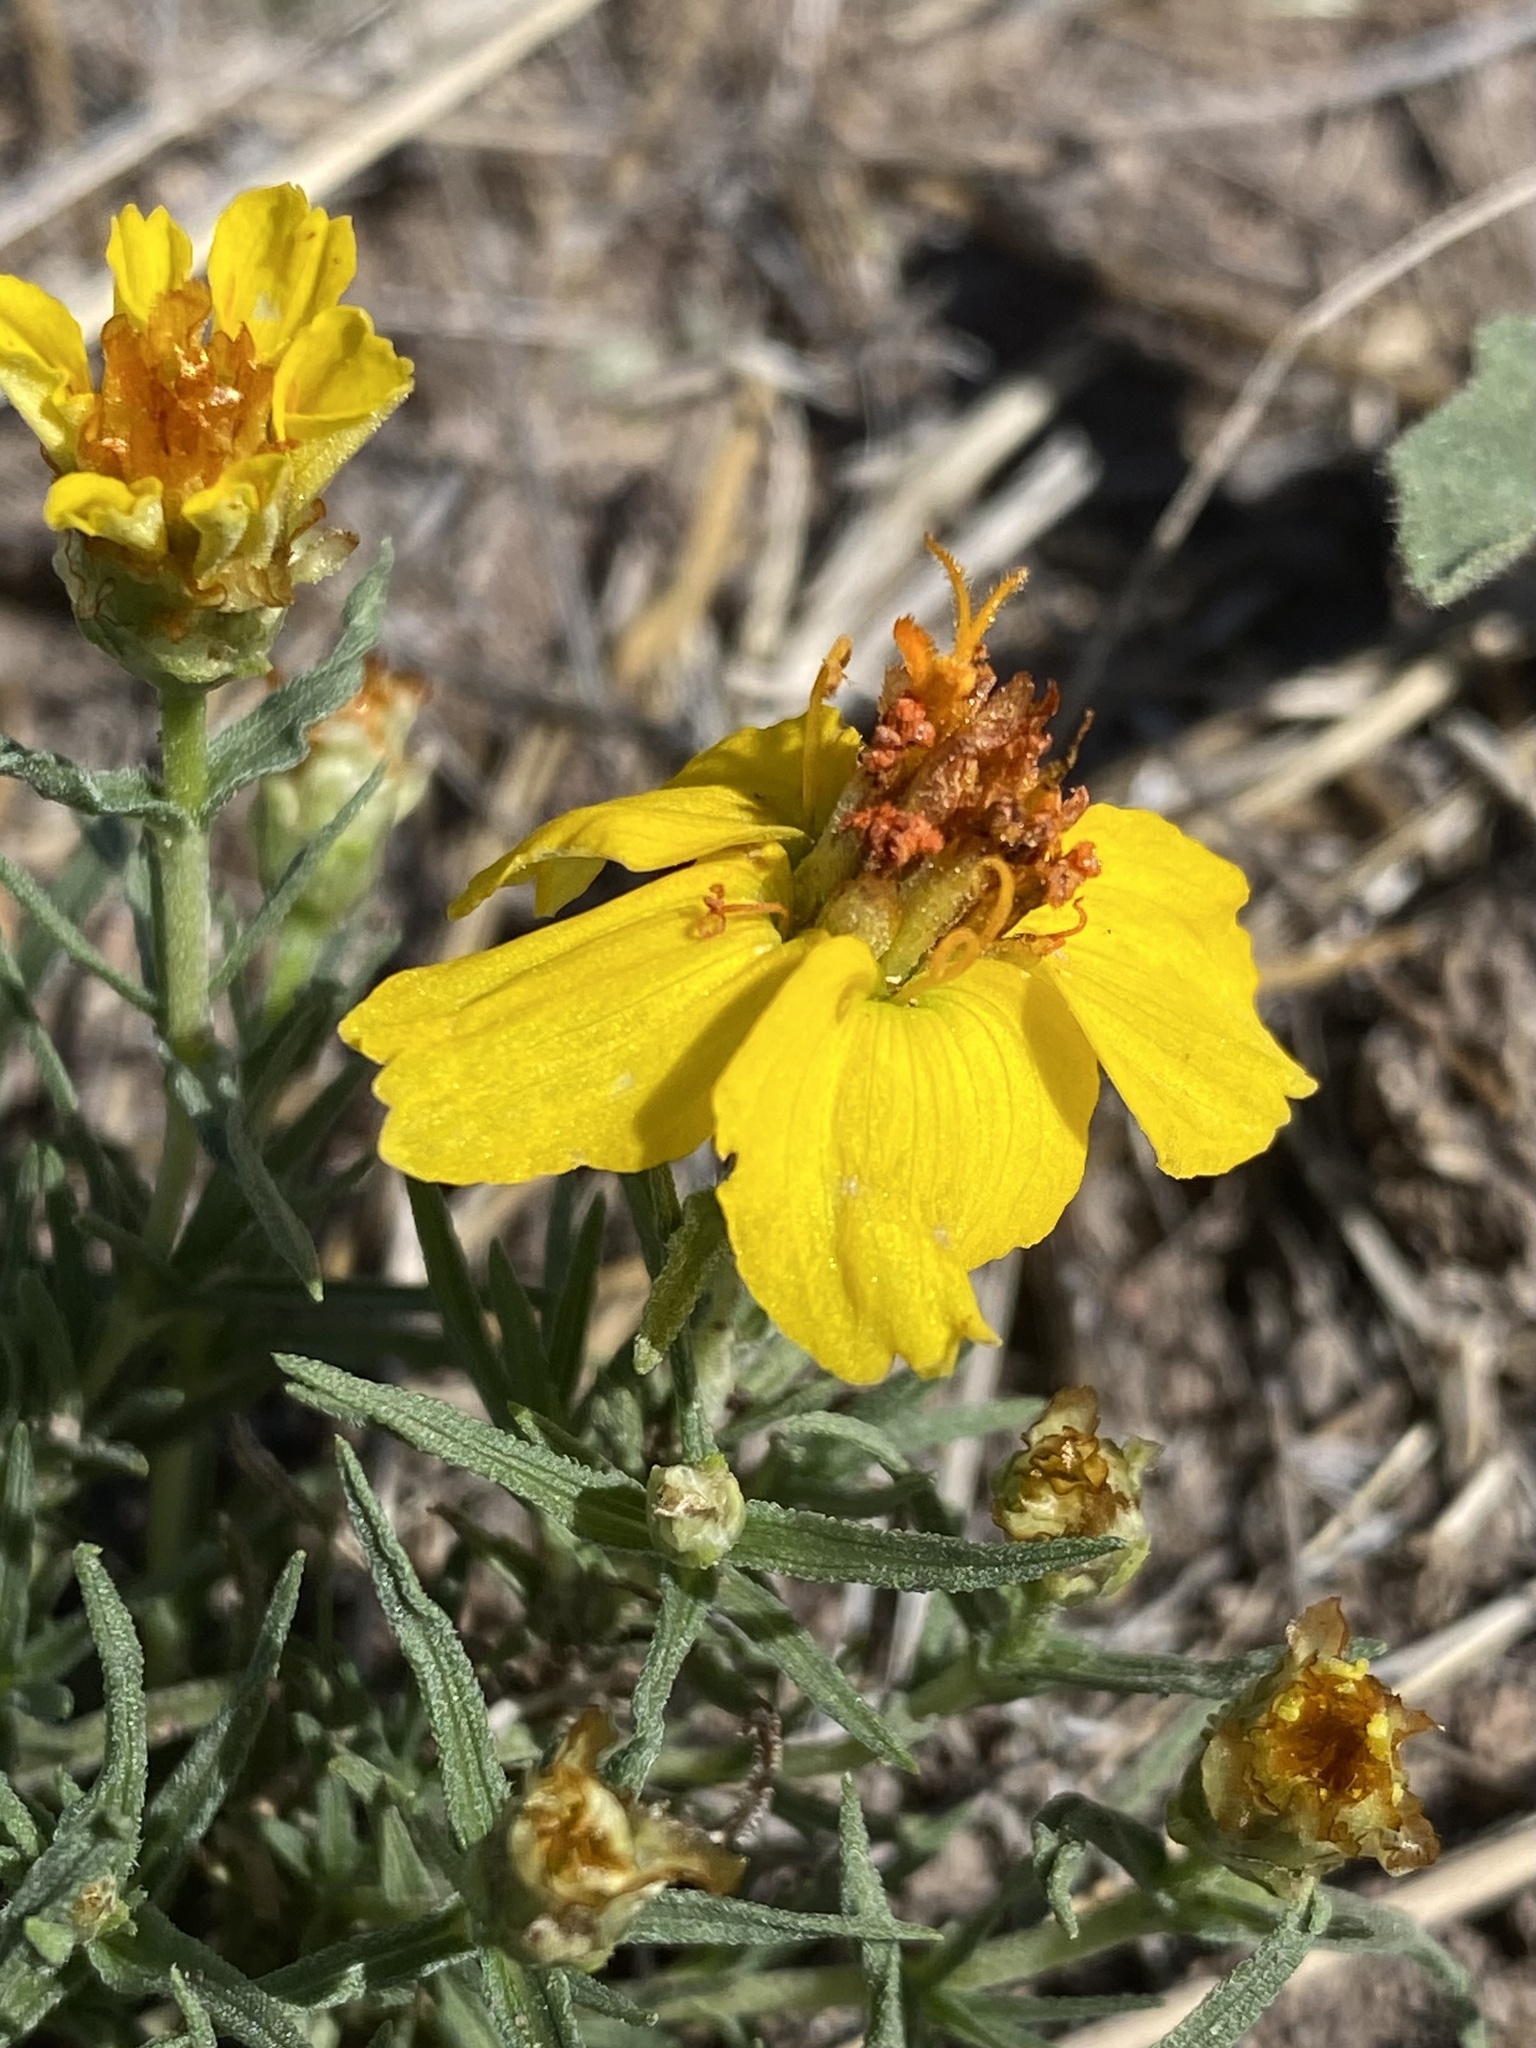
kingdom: Plantae
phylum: Tracheophyta
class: Magnoliopsida
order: Asterales
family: Asteraceae
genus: Zinnia
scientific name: Zinnia grandiflora
